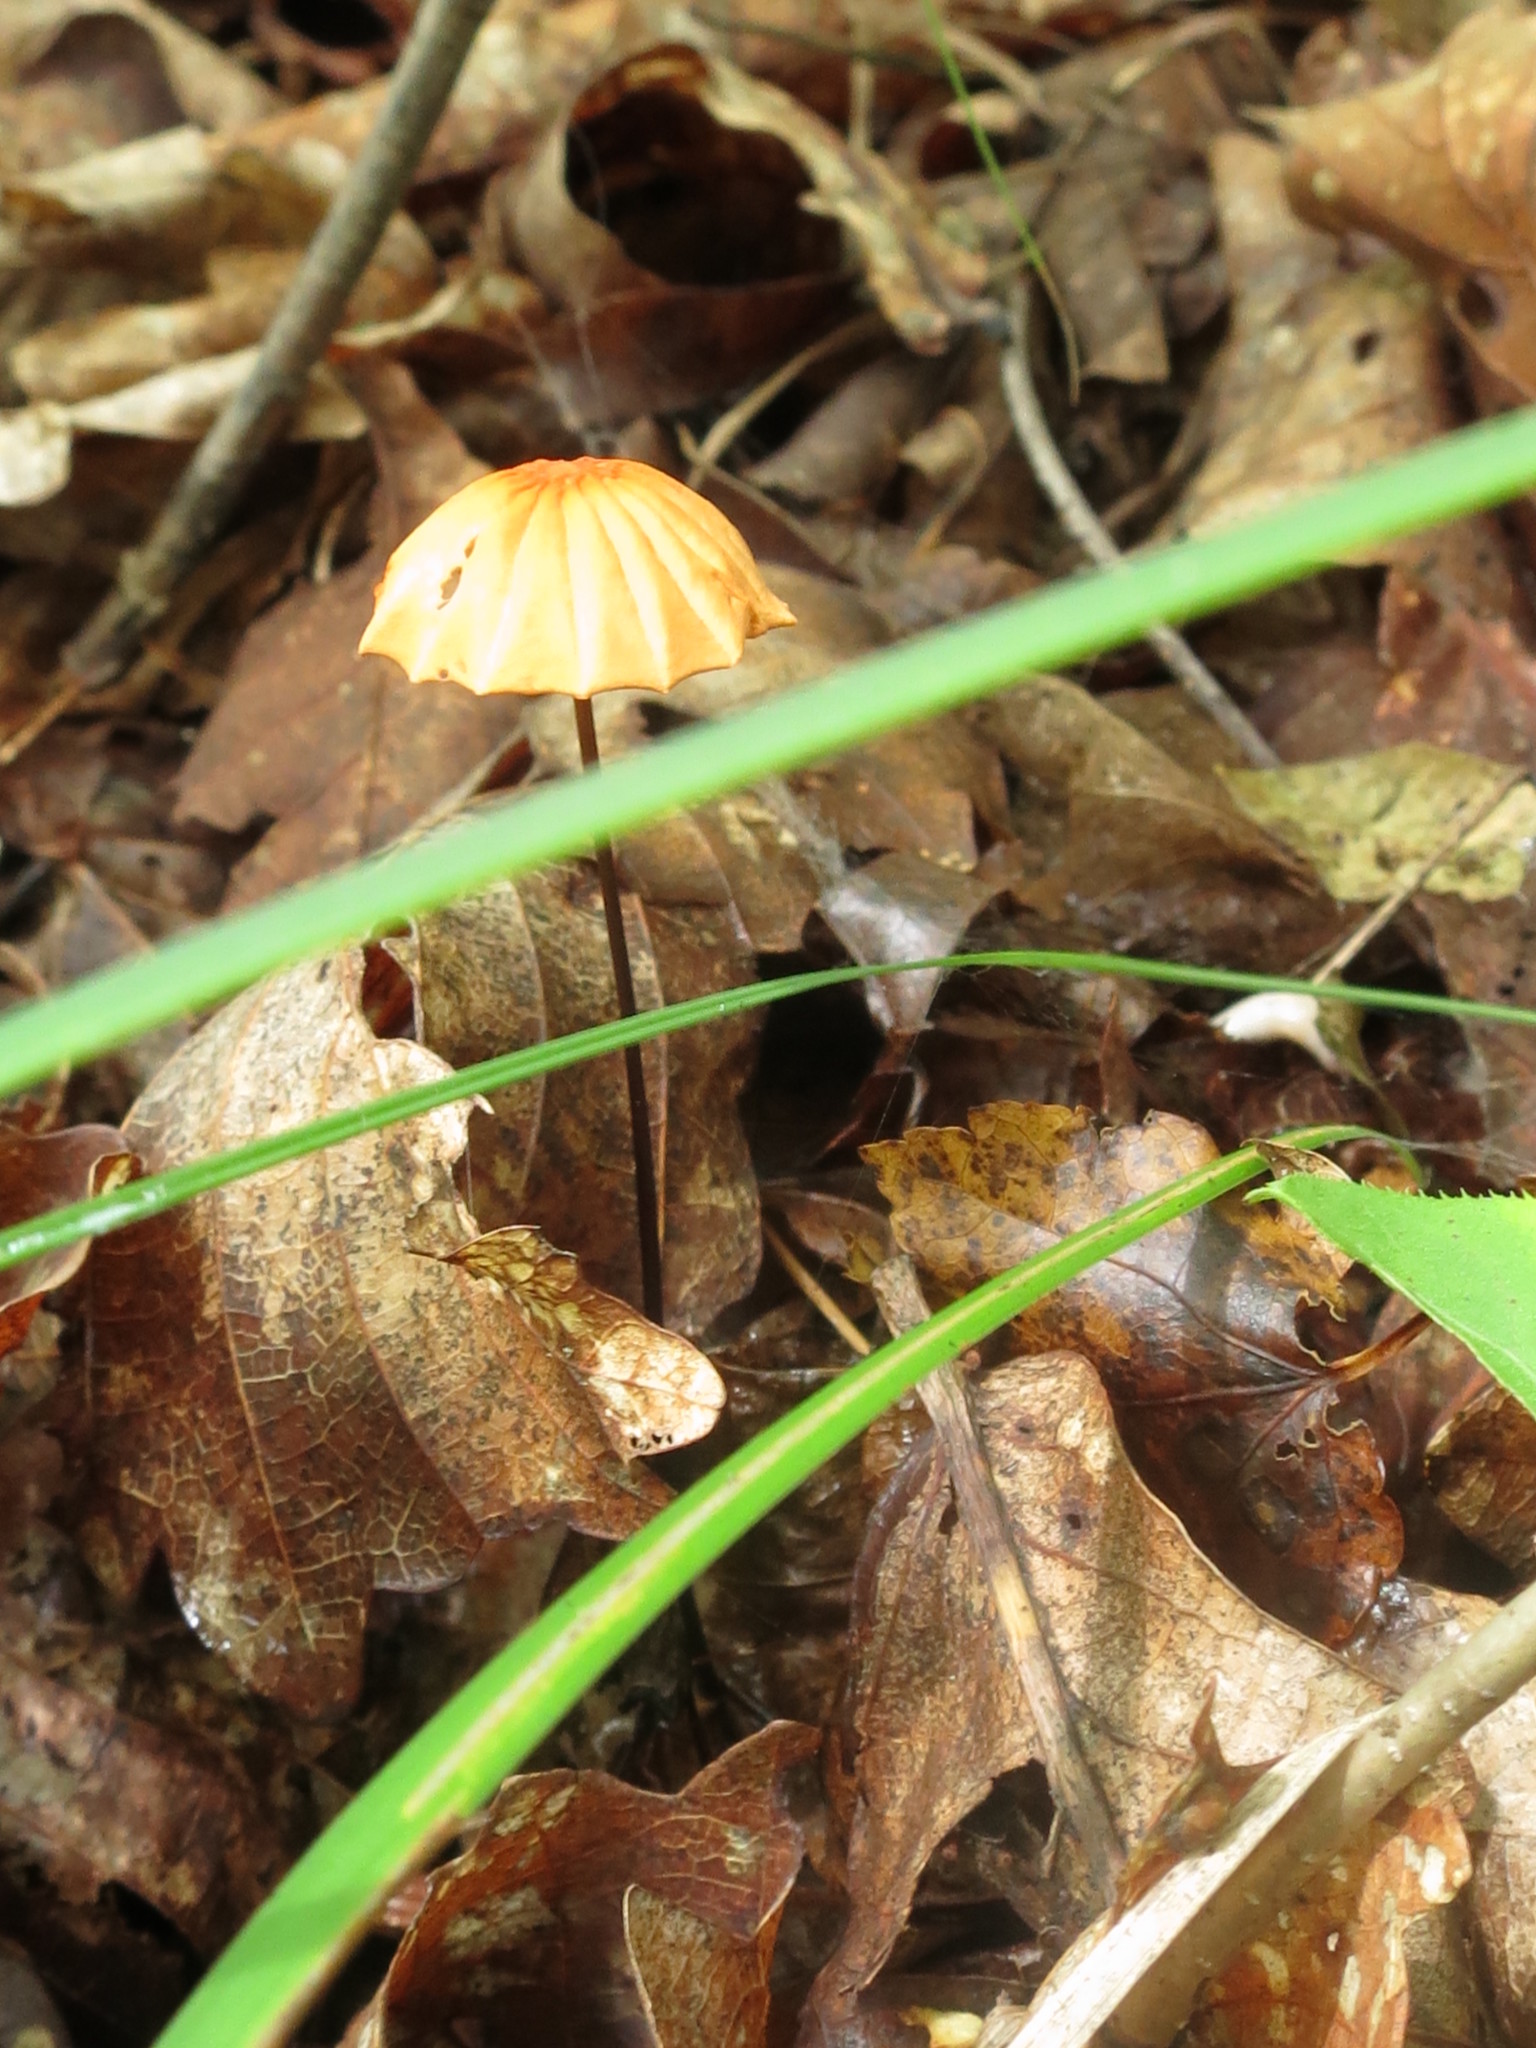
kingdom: Fungi
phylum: Basidiomycota
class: Agaricomycetes
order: Agaricales
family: Marasmiaceae
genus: Marasmius
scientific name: Marasmius siccus
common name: Orange pinwheel
